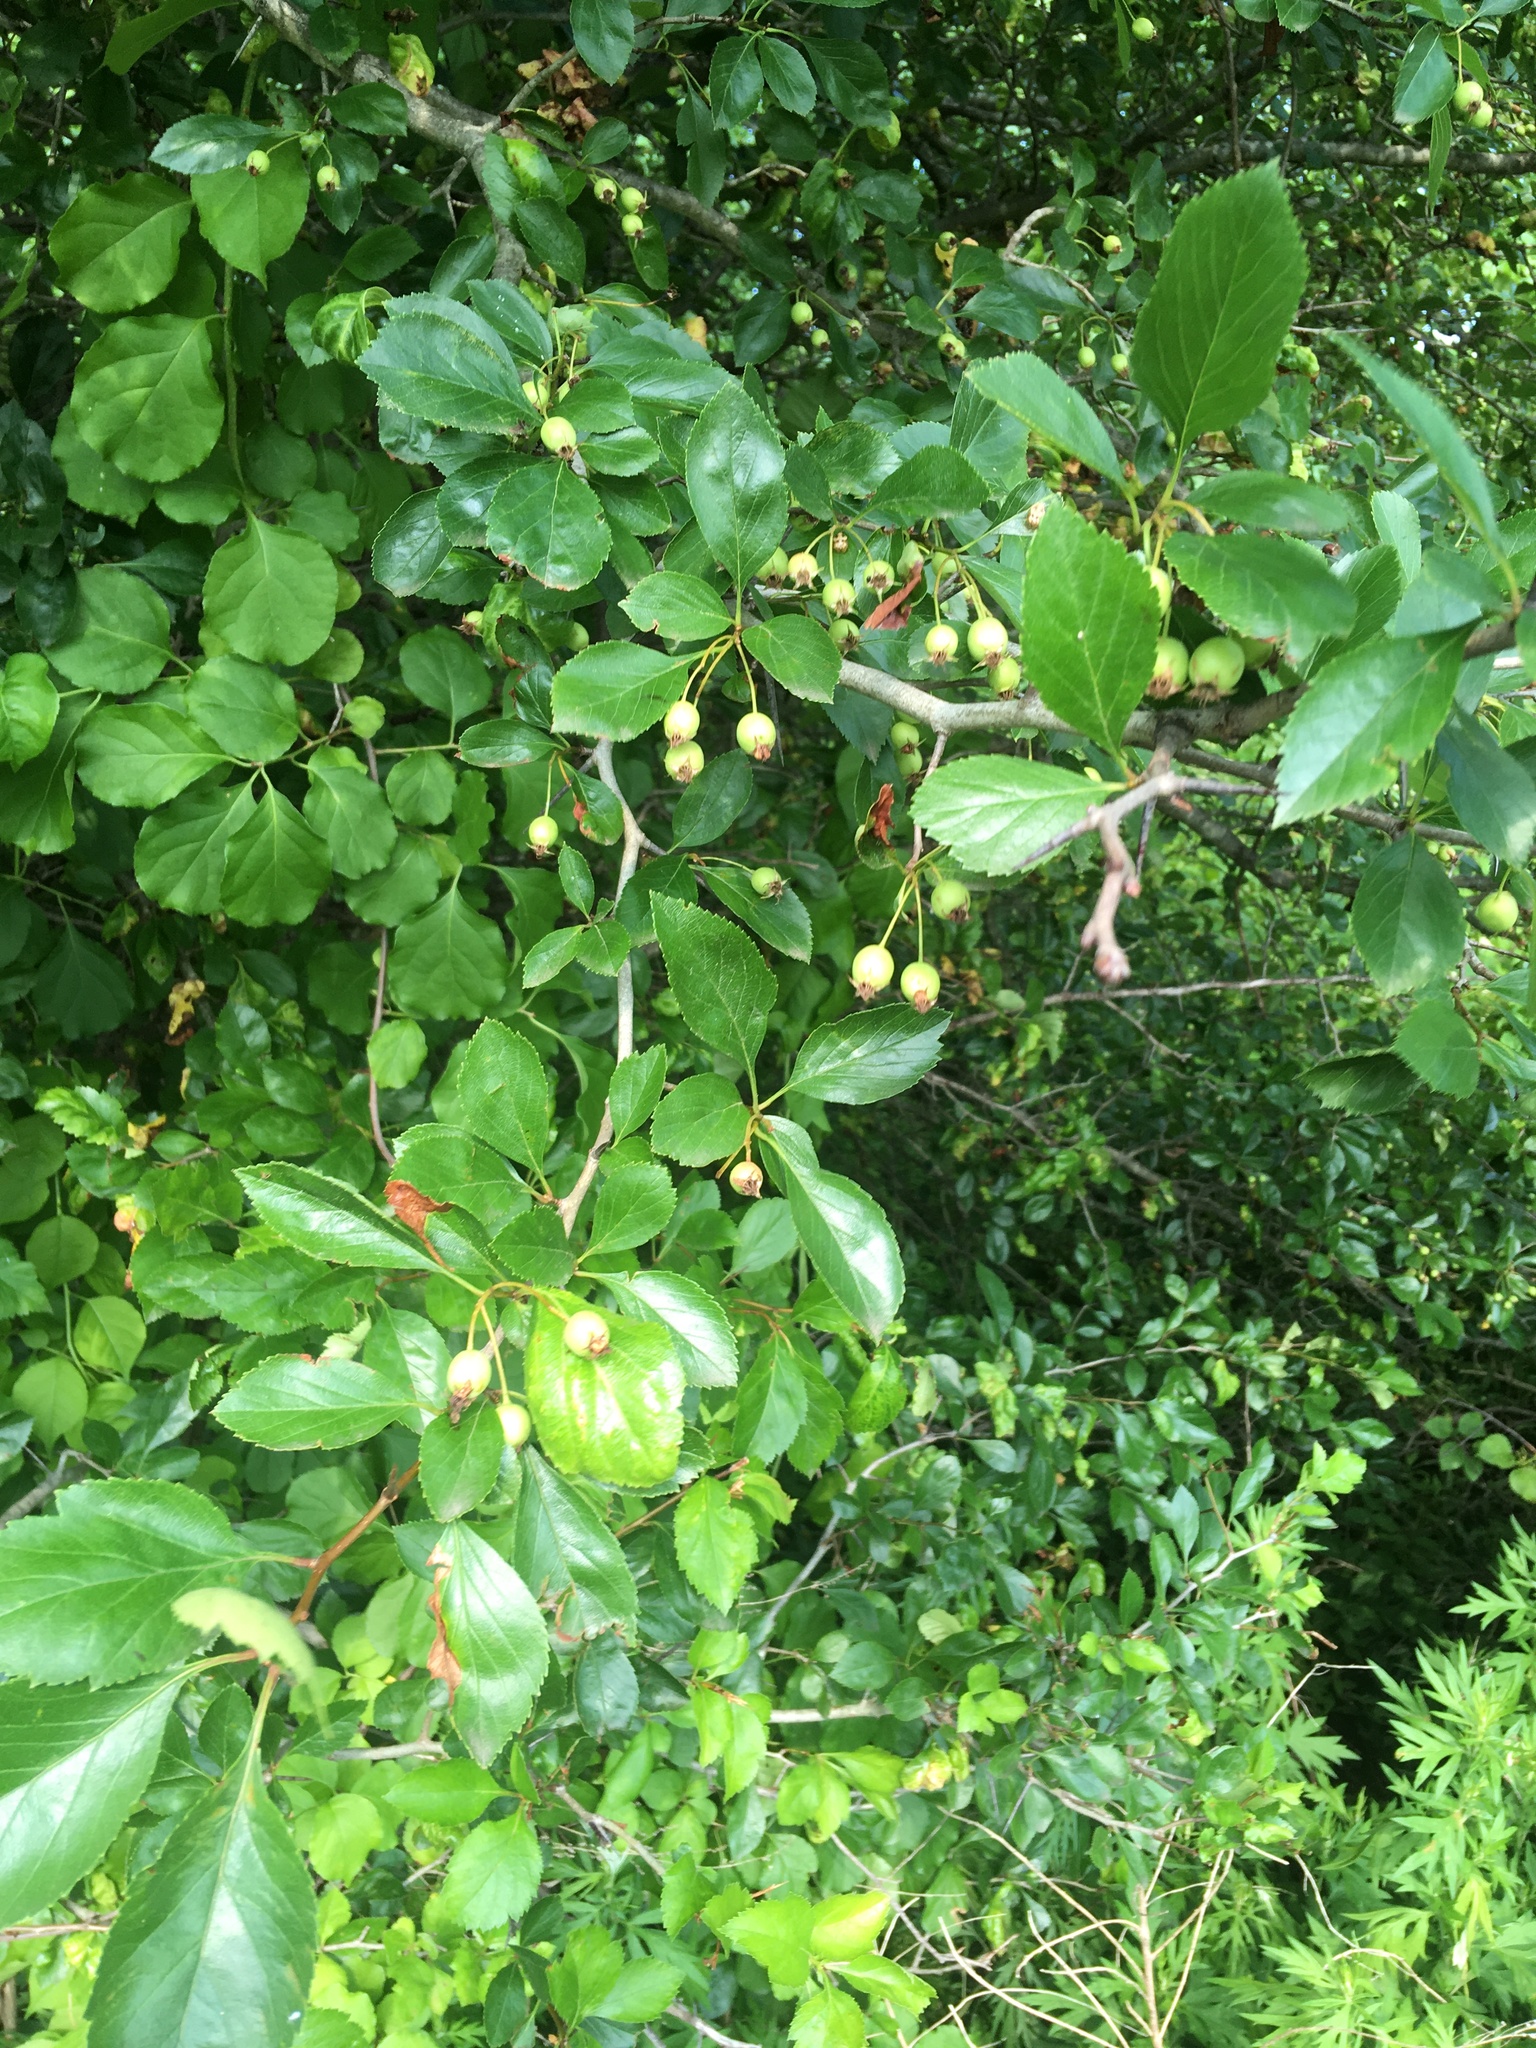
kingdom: Plantae
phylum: Tracheophyta
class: Magnoliopsida
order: Rosales
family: Rosaceae
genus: Crataegus
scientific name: Crataegus laevigata
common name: Midland hawthorn
